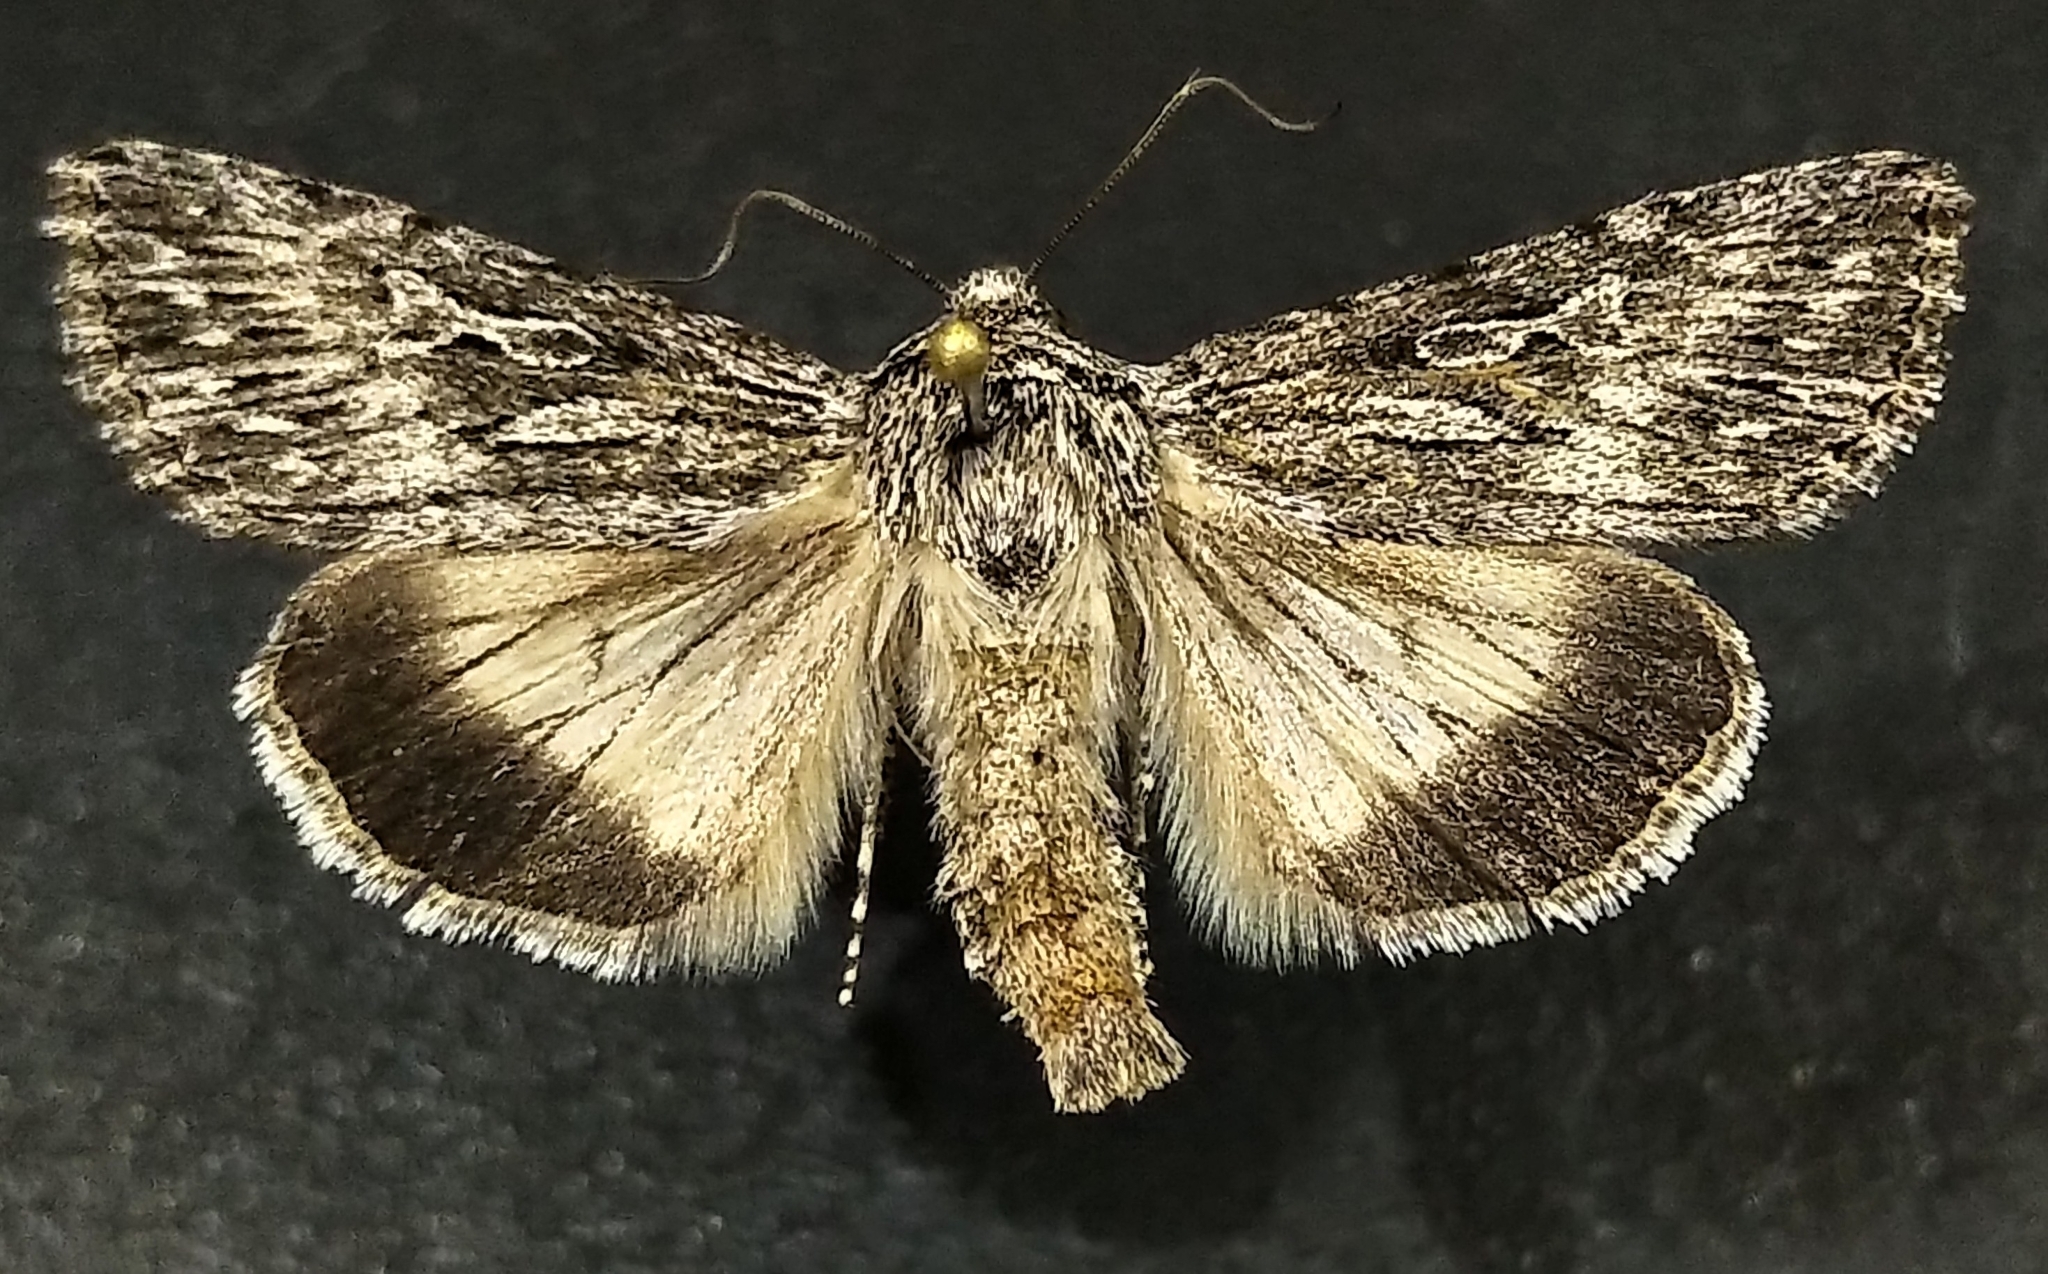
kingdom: Animalia
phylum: Arthropoda
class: Insecta
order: Lepidoptera
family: Noctuidae
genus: Sympistis
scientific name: Sympistis poliochroa
